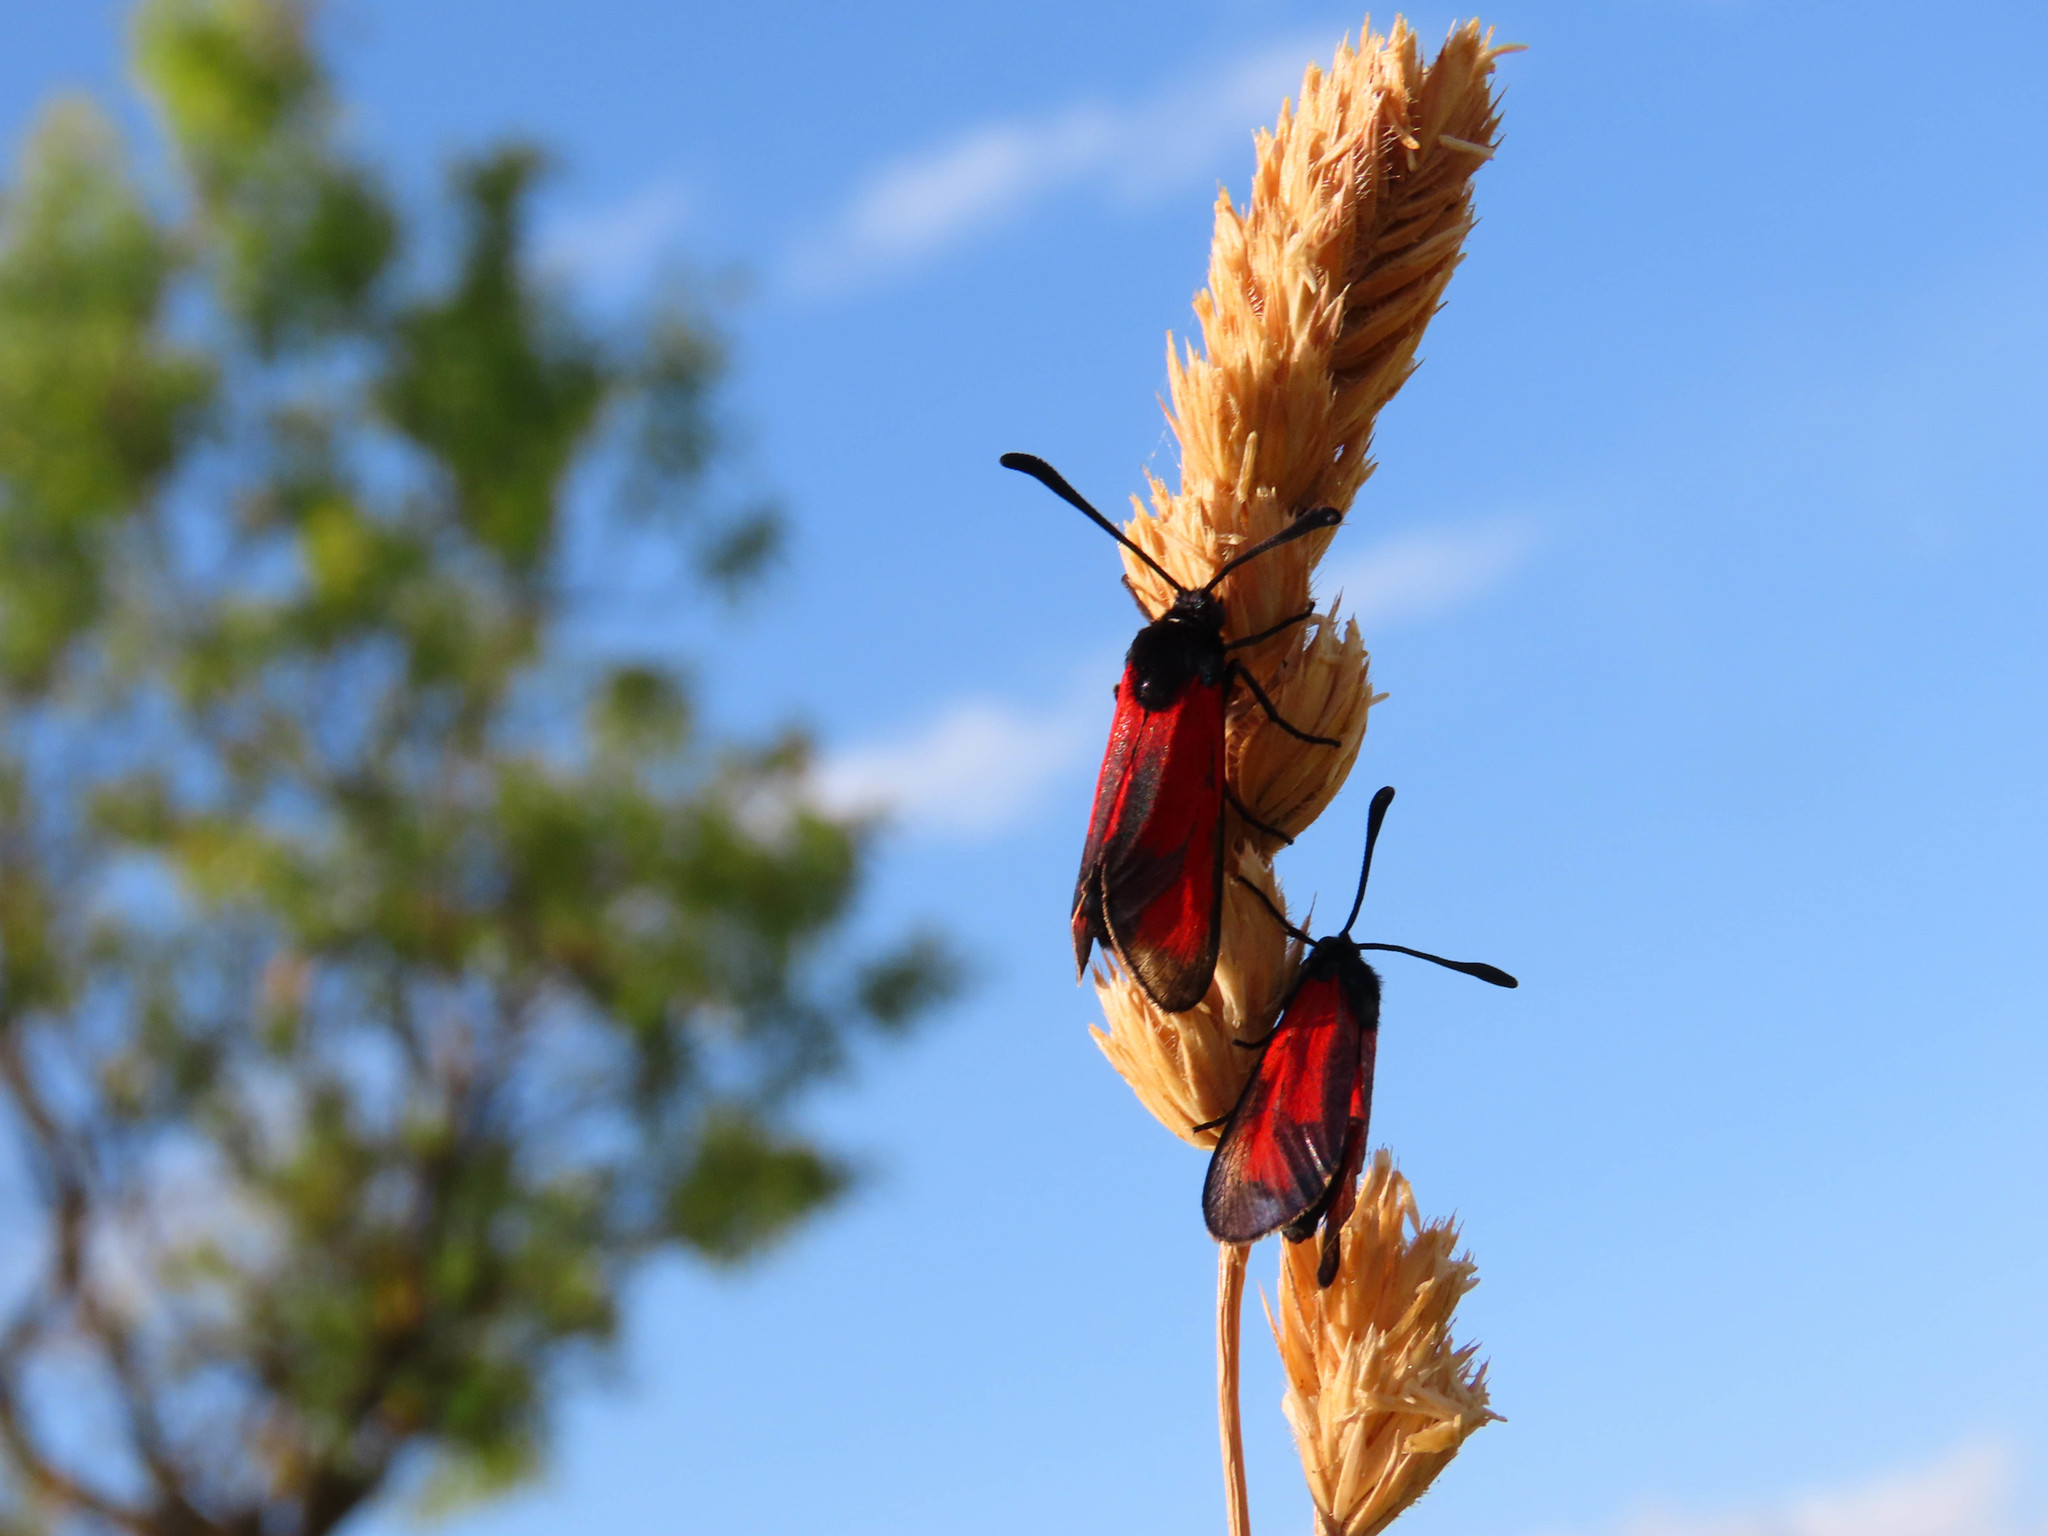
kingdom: Animalia
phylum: Arthropoda
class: Insecta
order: Lepidoptera
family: Zygaenidae
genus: Zygaena
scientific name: Zygaena erythrus
